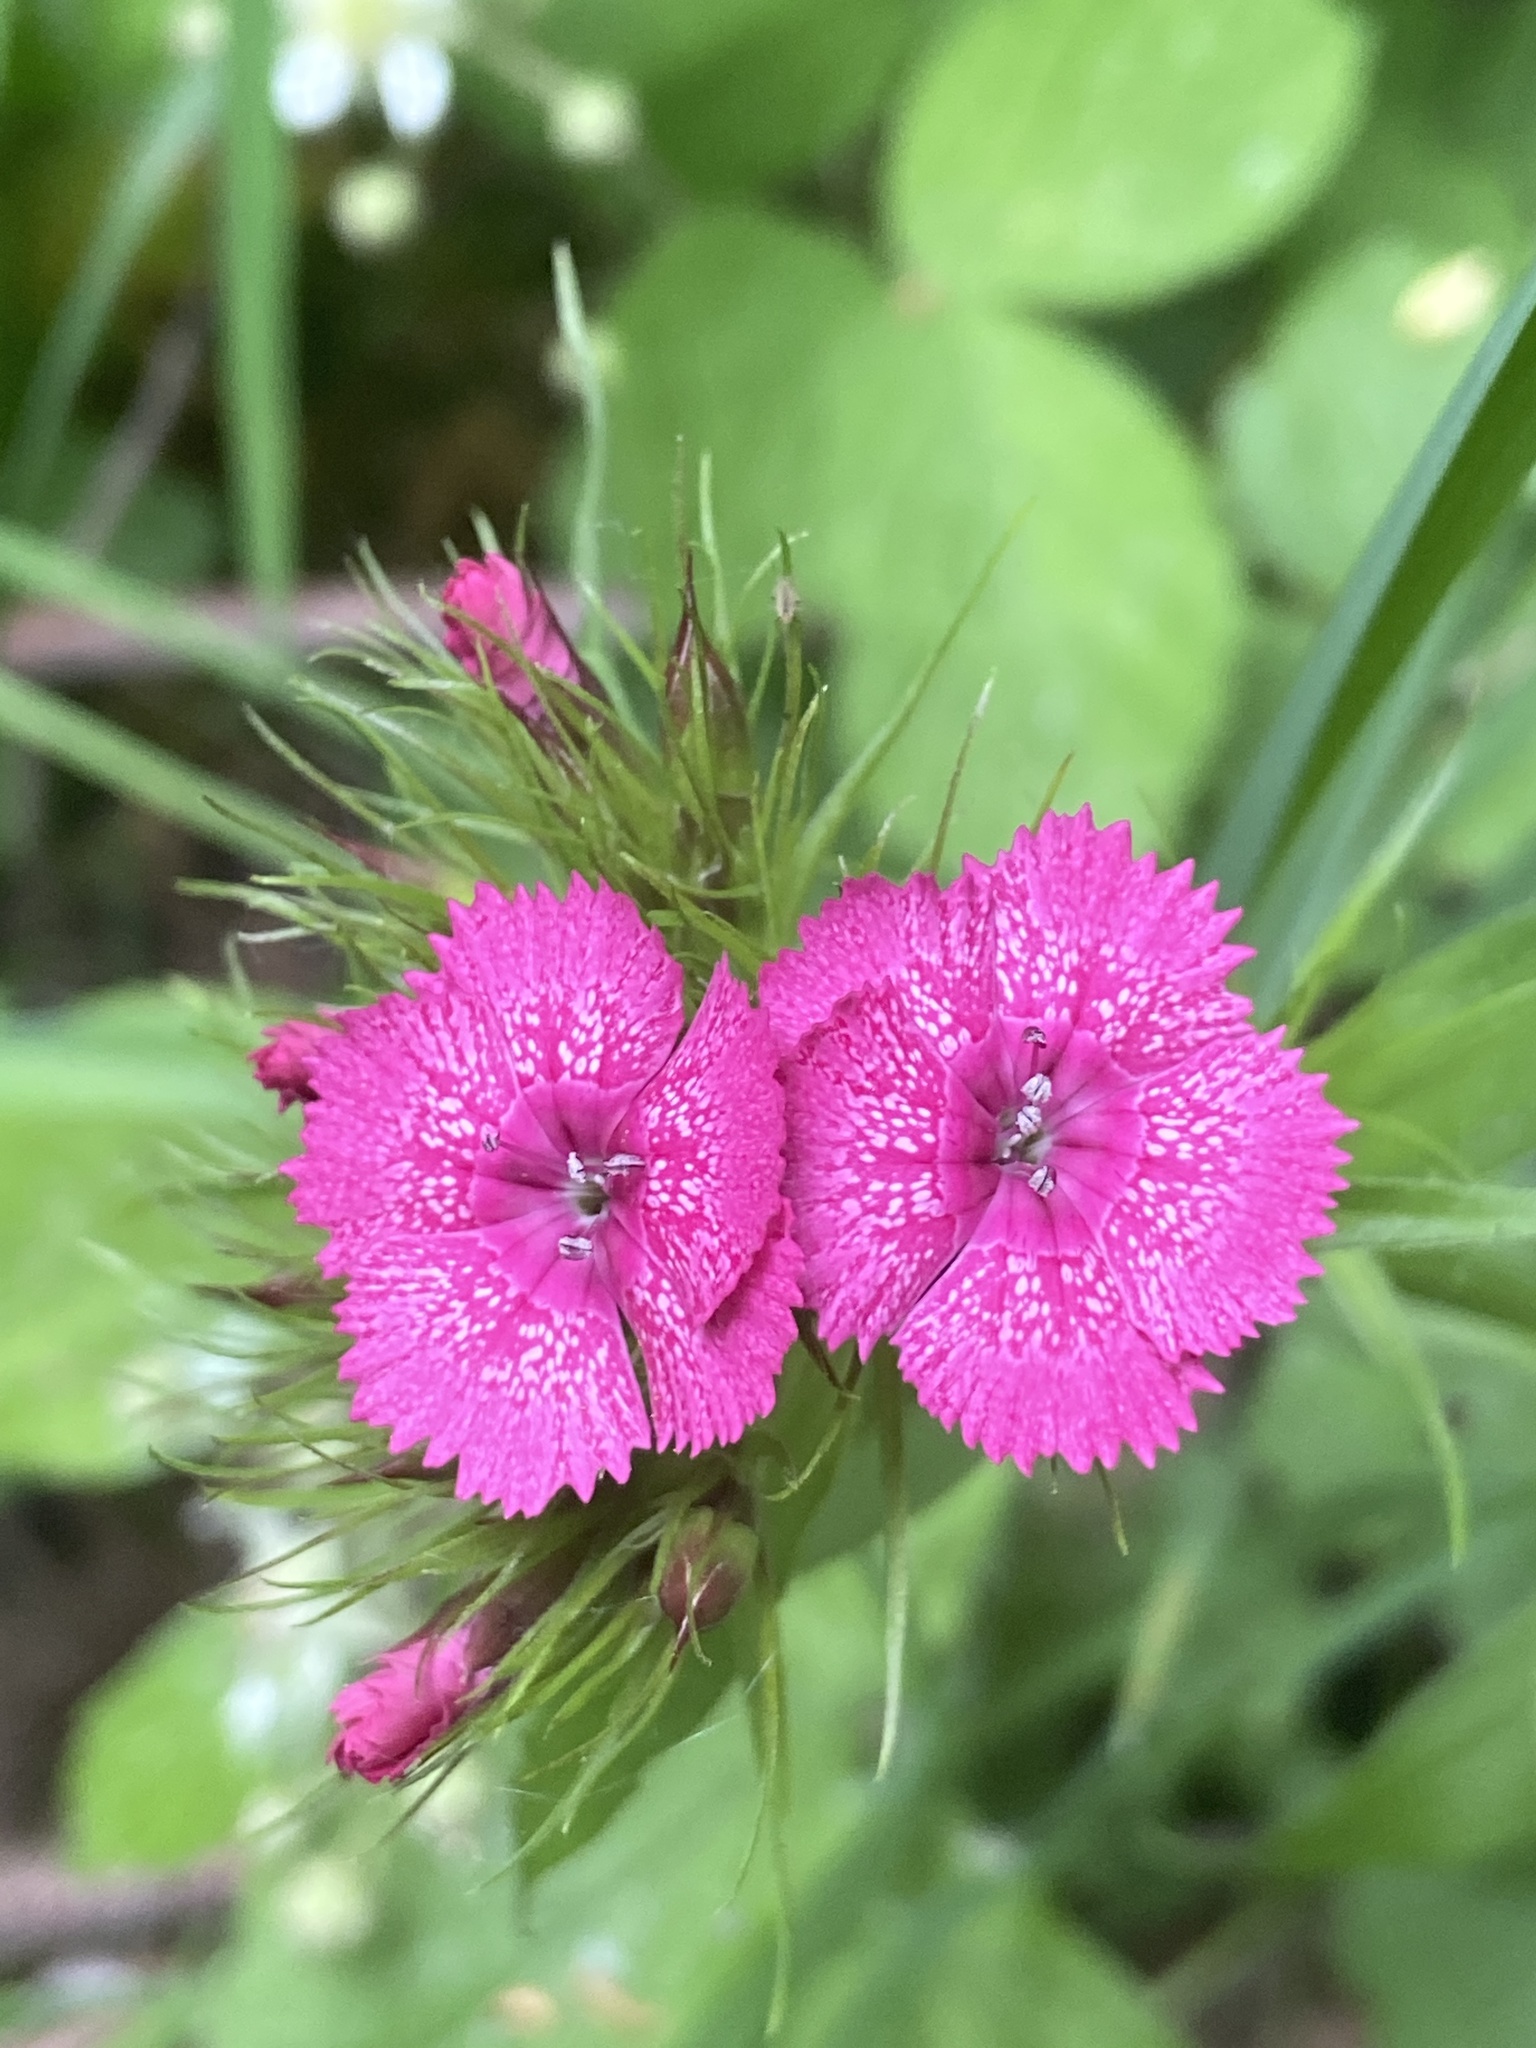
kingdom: Plantae
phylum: Tracheophyta
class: Magnoliopsida
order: Caryophyllales
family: Caryophyllaceae
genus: Dianthus
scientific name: Dianthus barbatus
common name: Sweet-william
